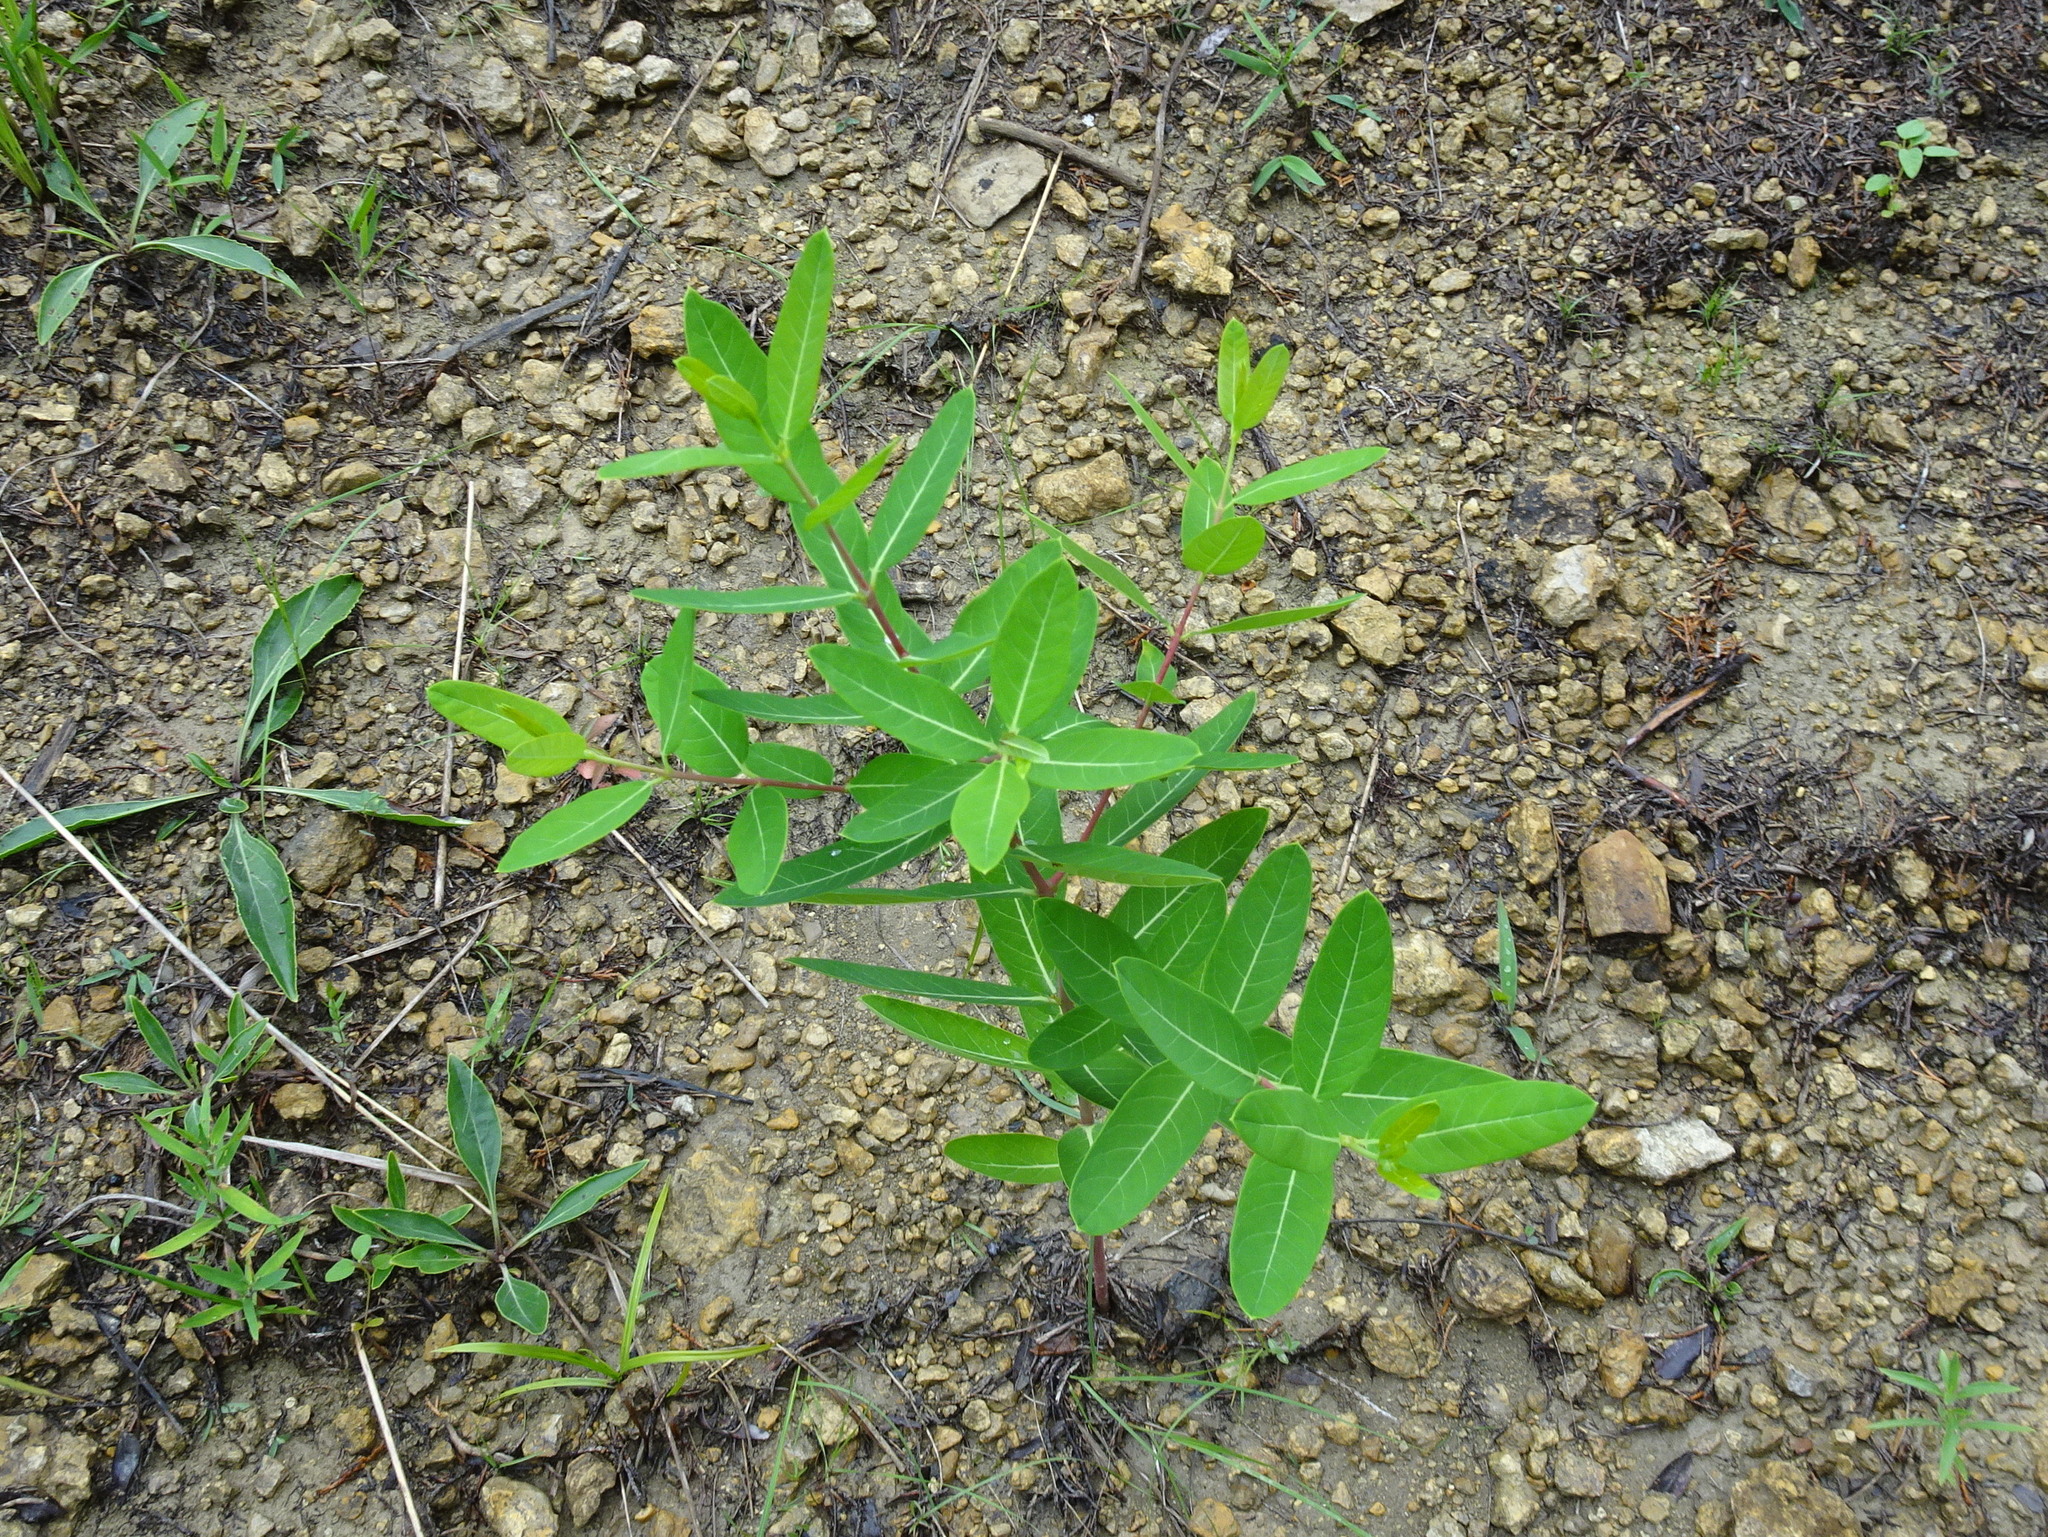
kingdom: Plantae
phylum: Tracheophyta
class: Magnoliopsida
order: Gentianales
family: Apocynaceae
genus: Apocynum
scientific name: Apocynum cannabinum
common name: Hemp dogbane
